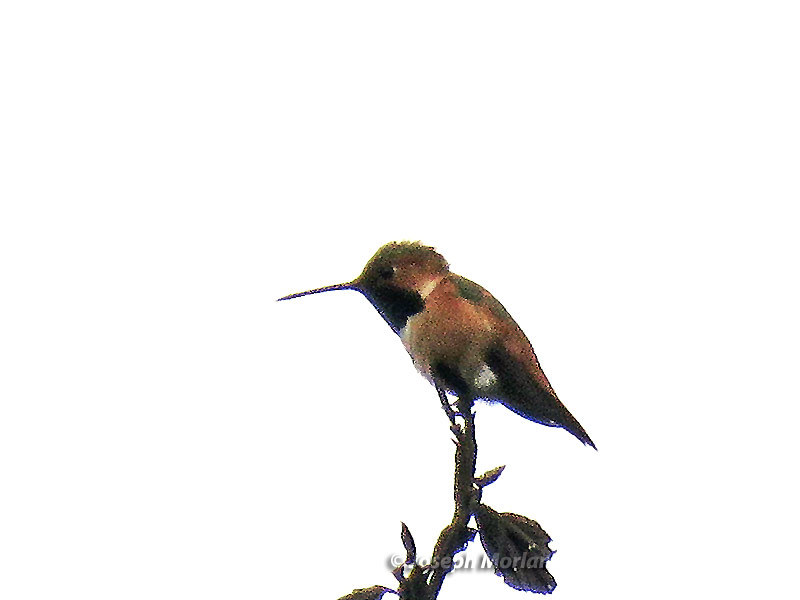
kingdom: Animalia
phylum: Chordata
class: Aves
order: Apodiformes
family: Trochilidae
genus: Selasphorus
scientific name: Selasphorus sasin
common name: Allen's hummingbird
